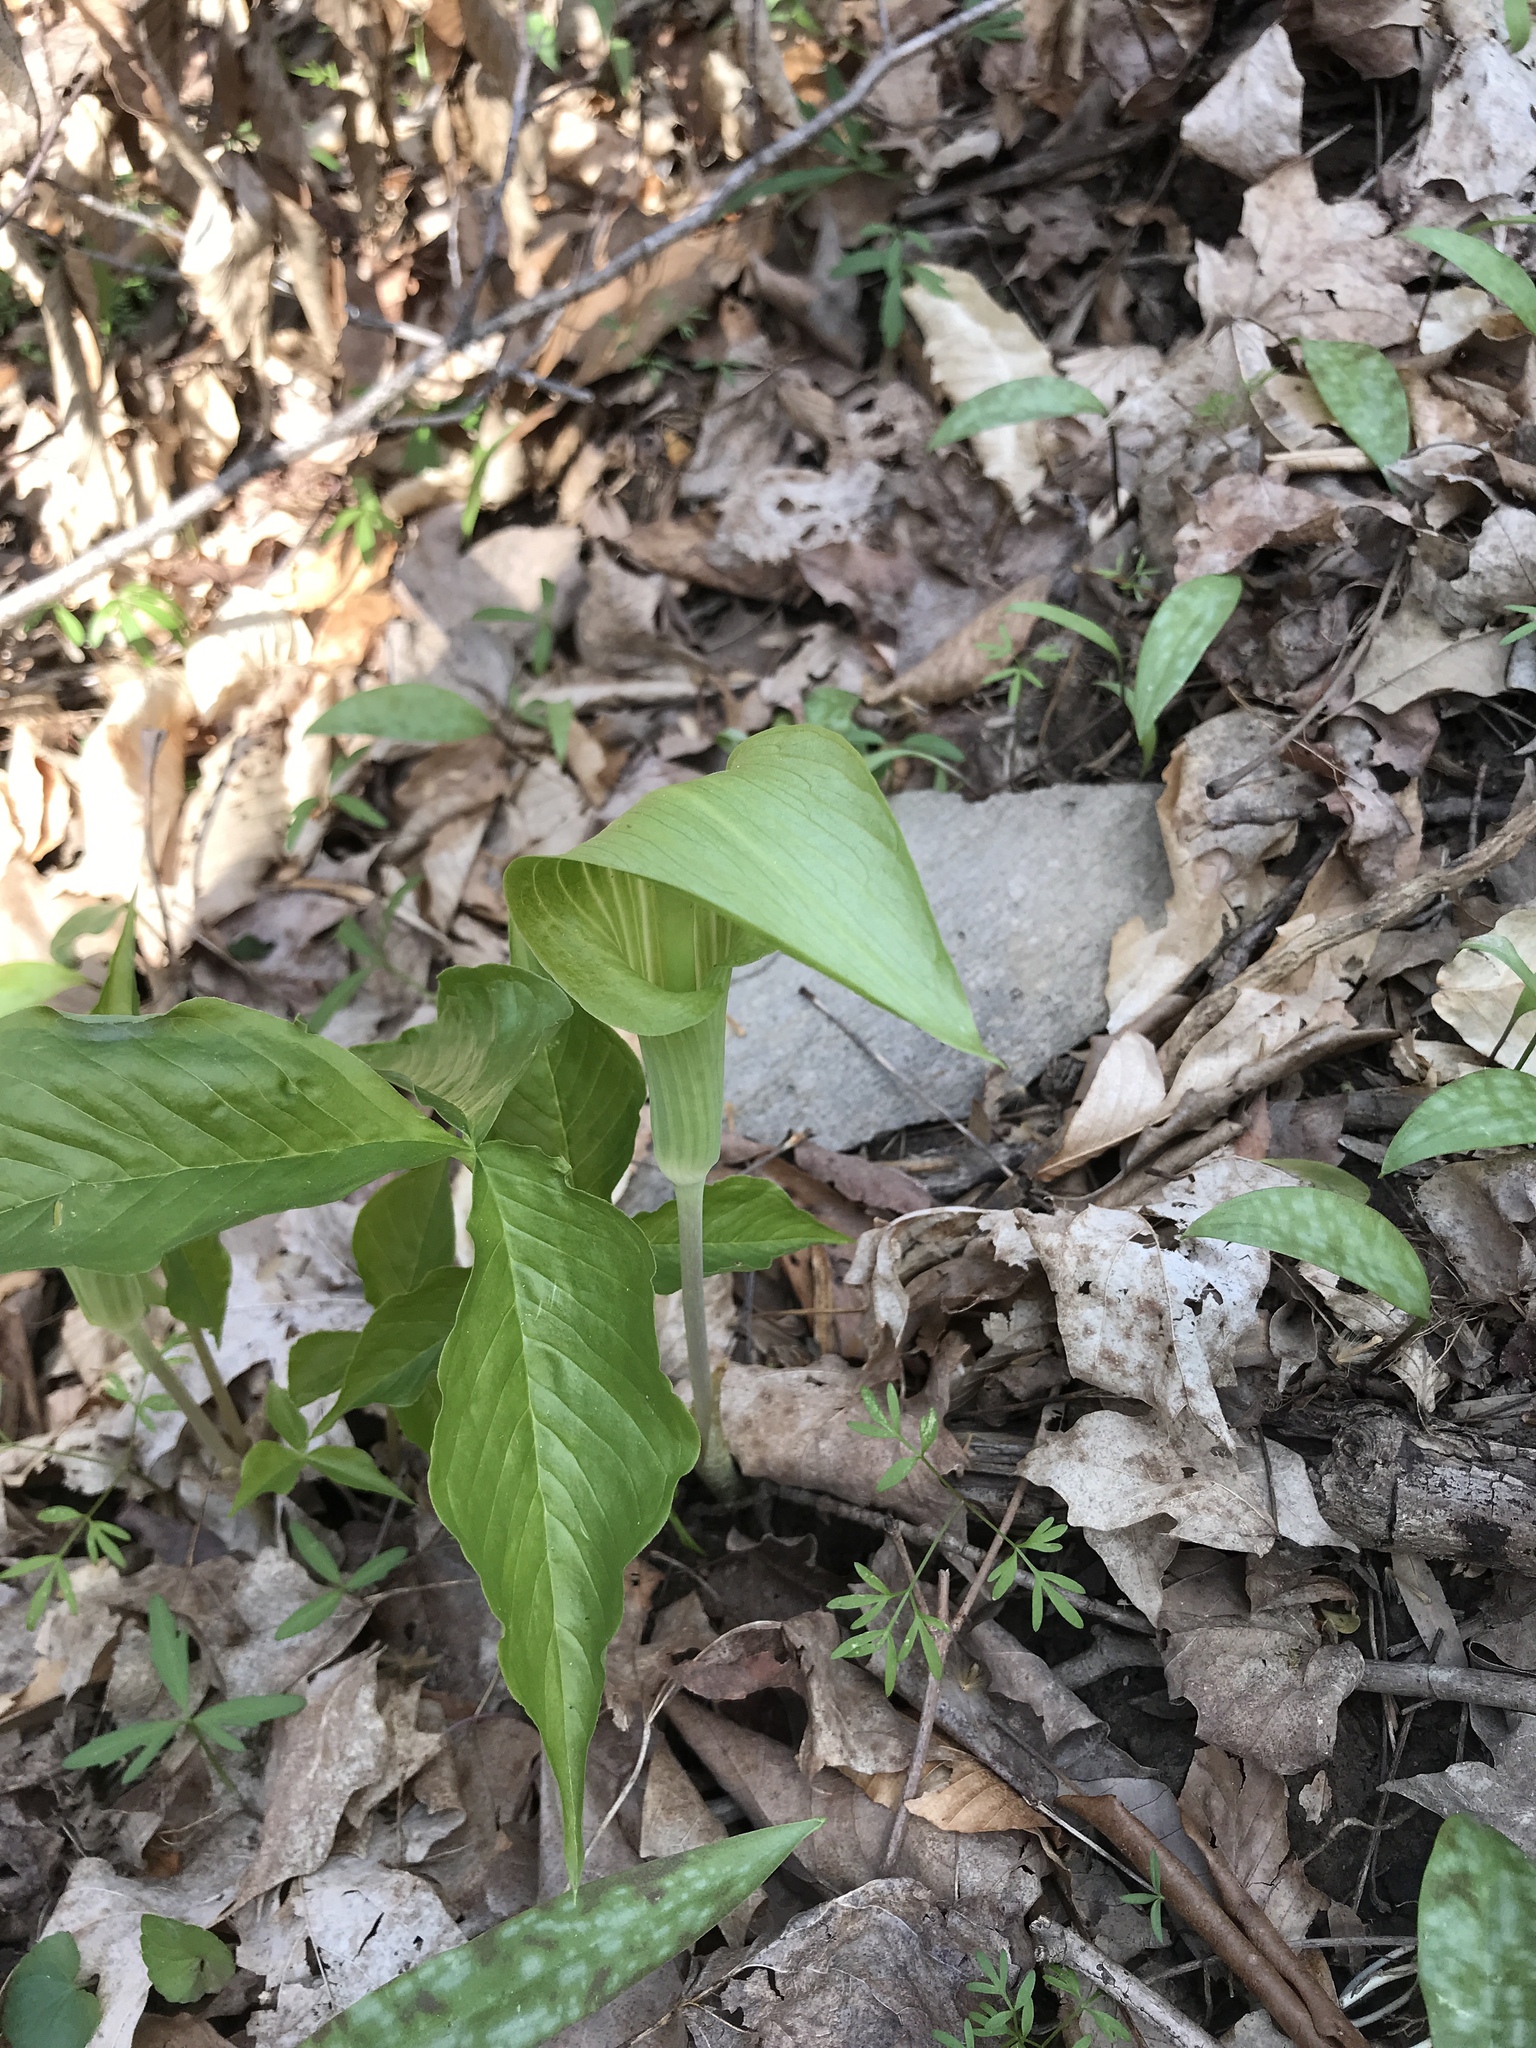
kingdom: Plantae
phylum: Tracheophyta
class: Liliopsida
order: Alismatales
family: Araceae
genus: Arisaema
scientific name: Arisaema triphyllum
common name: Jack-in-the-pulpit
